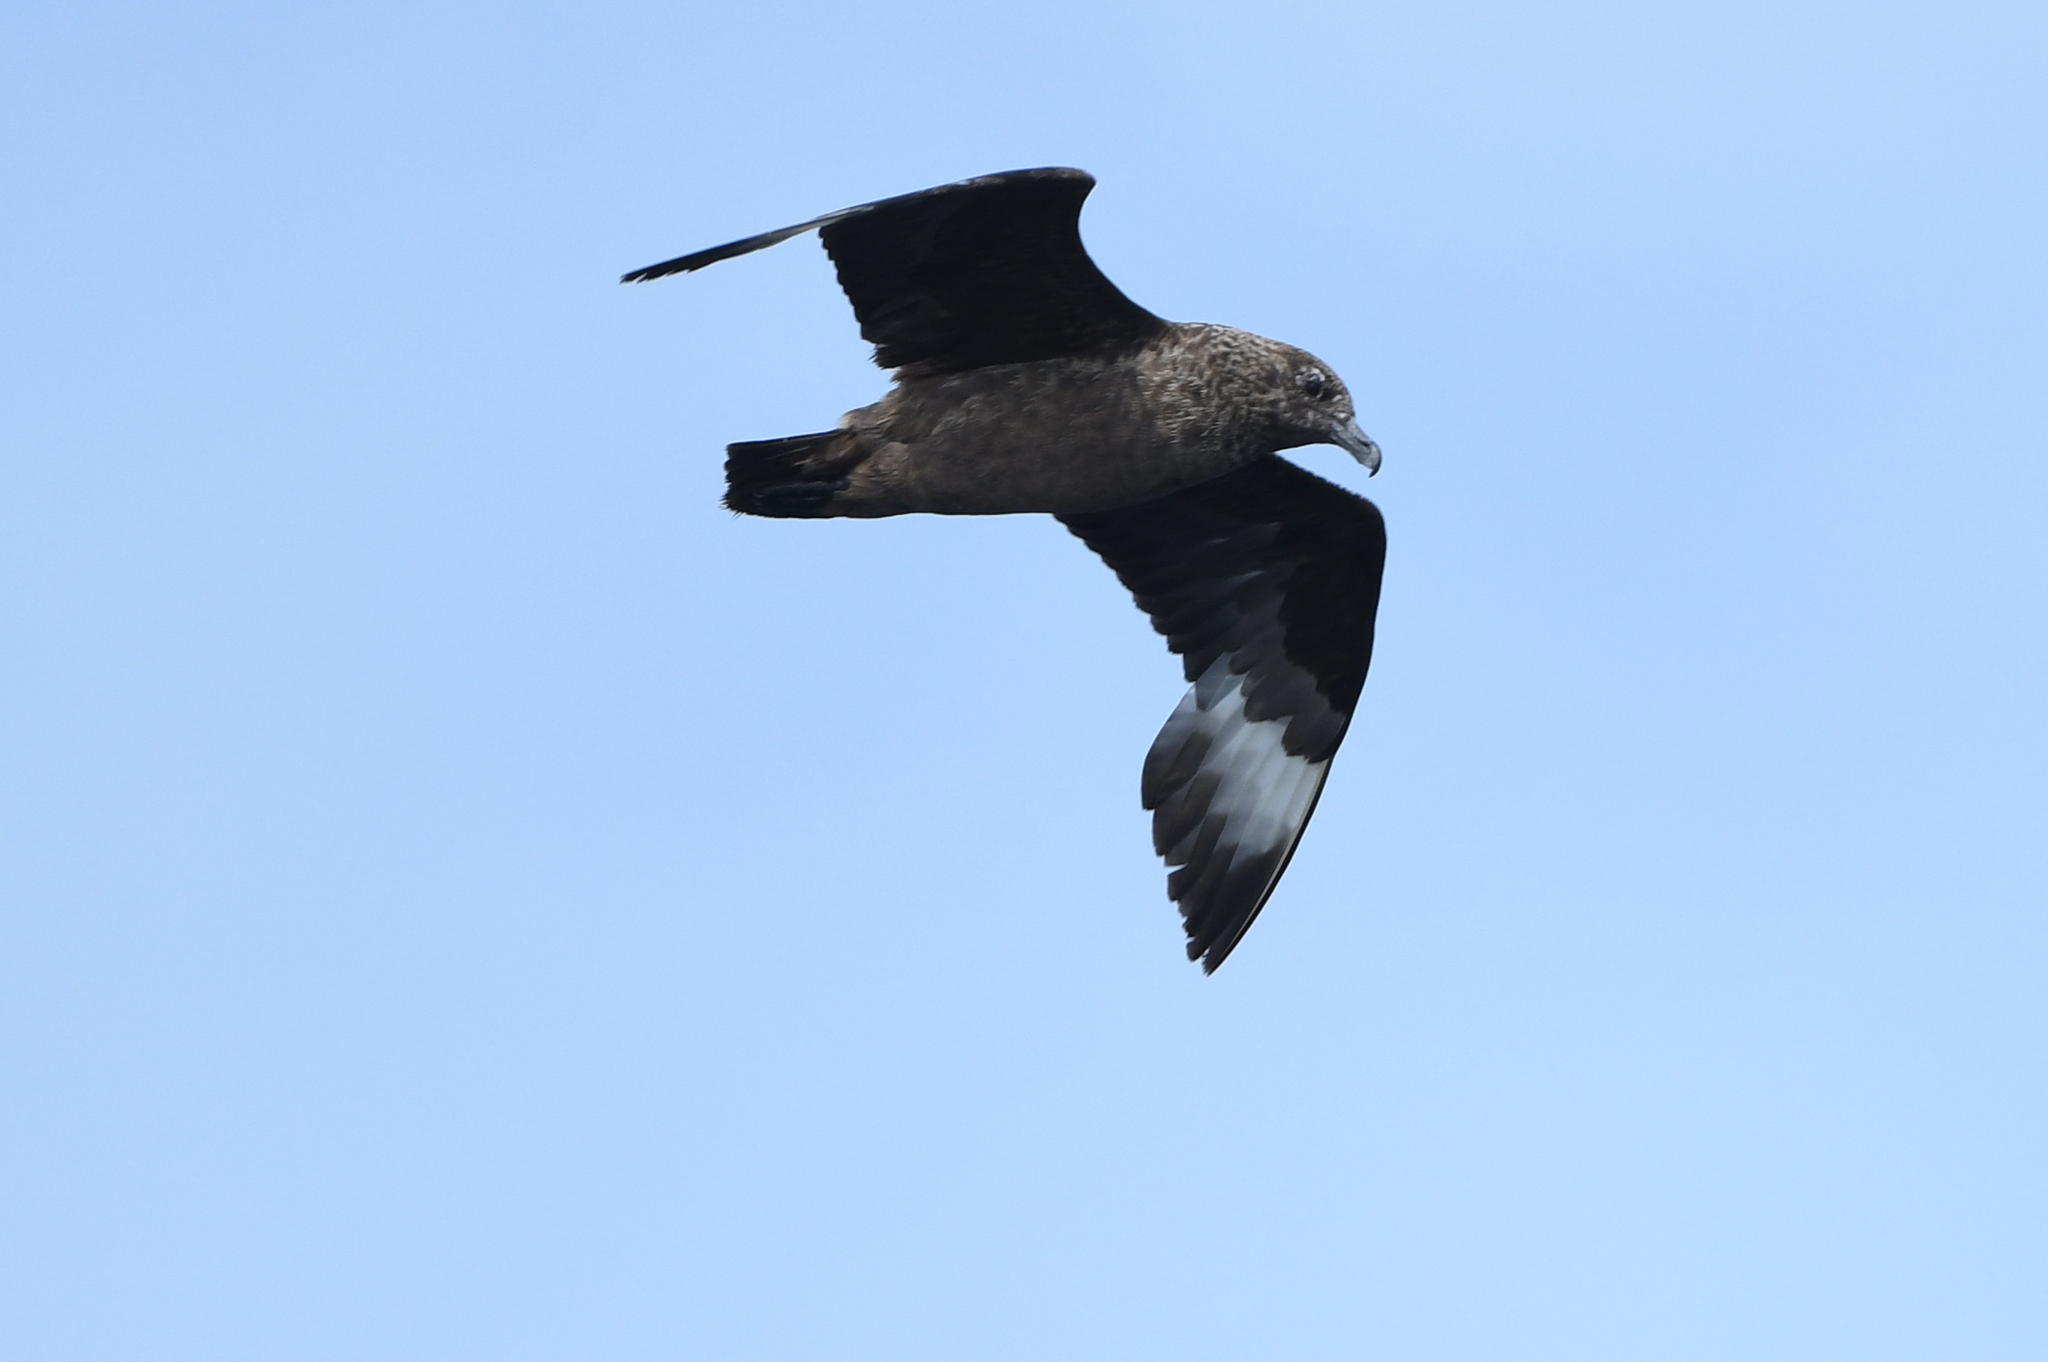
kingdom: Animalia
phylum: Chordata
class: Aves
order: Charadriiformes
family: Stercorariidae
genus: Stercorarius
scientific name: Stercorarius skua
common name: Great skua
